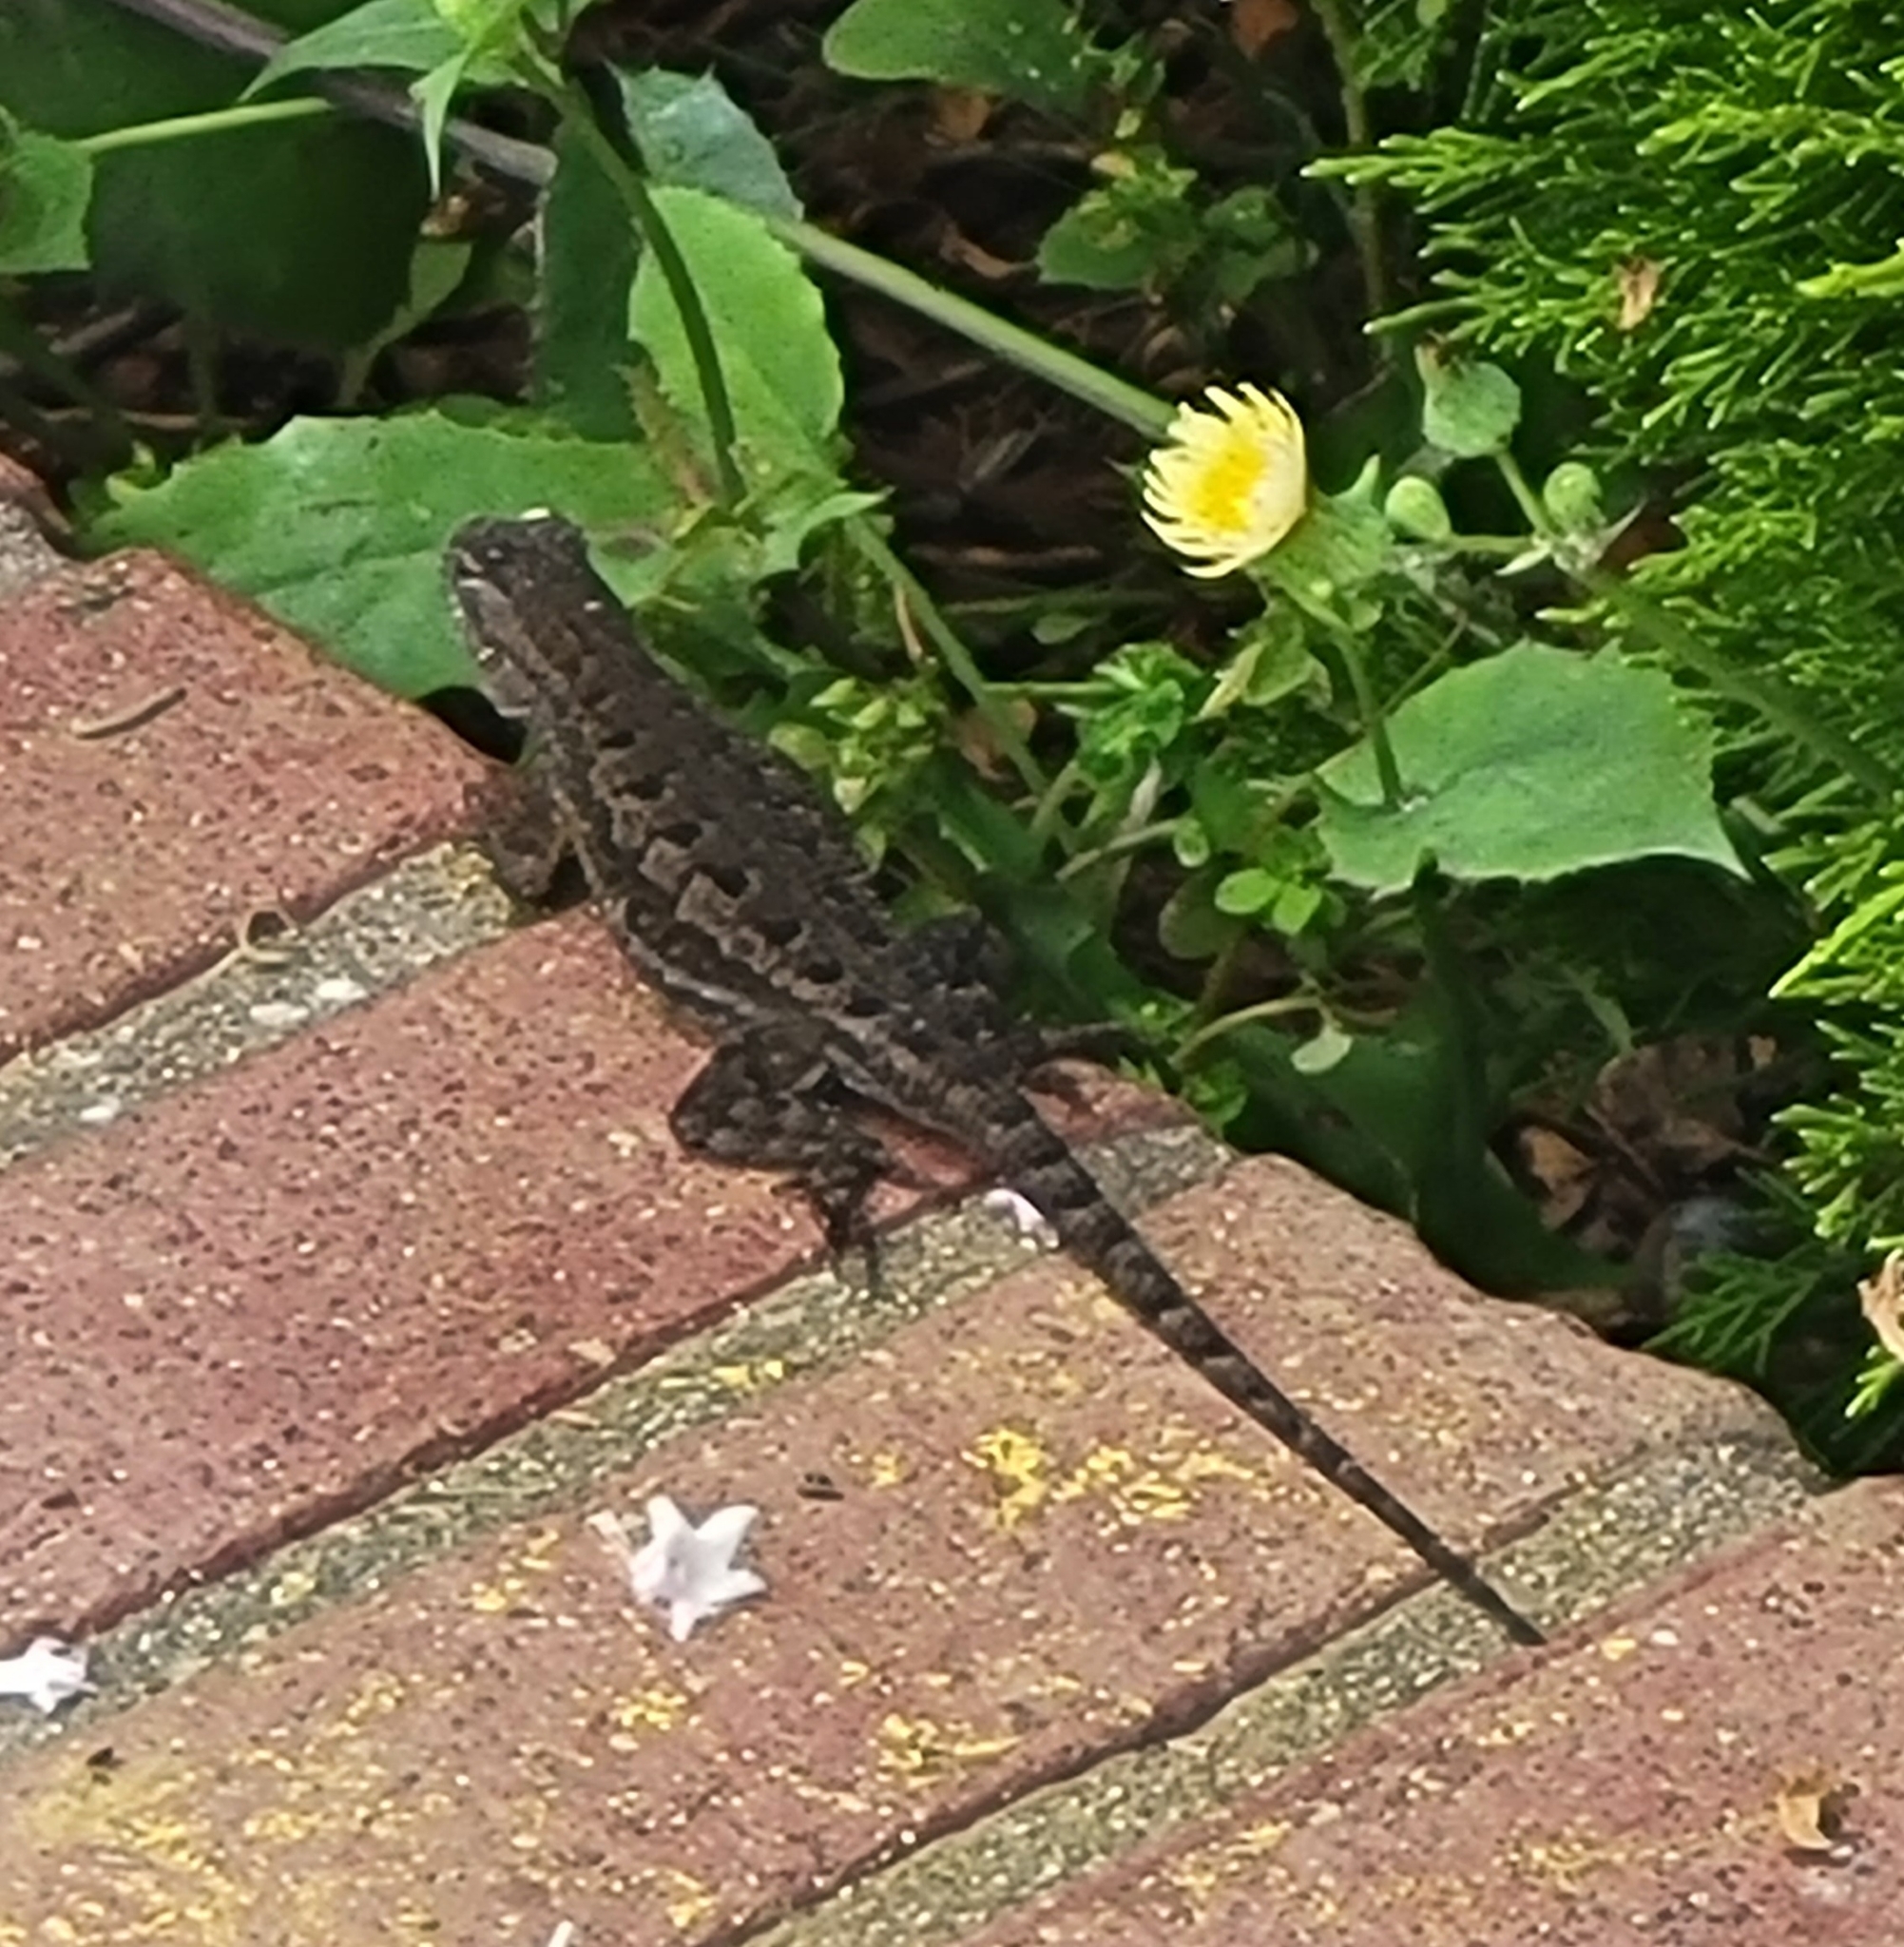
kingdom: Animalia
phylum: Chordata
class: Squamata
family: Phrynosomatidae
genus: Sceloporus
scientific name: Sceloporus occidentalis
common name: Western fence lizard
